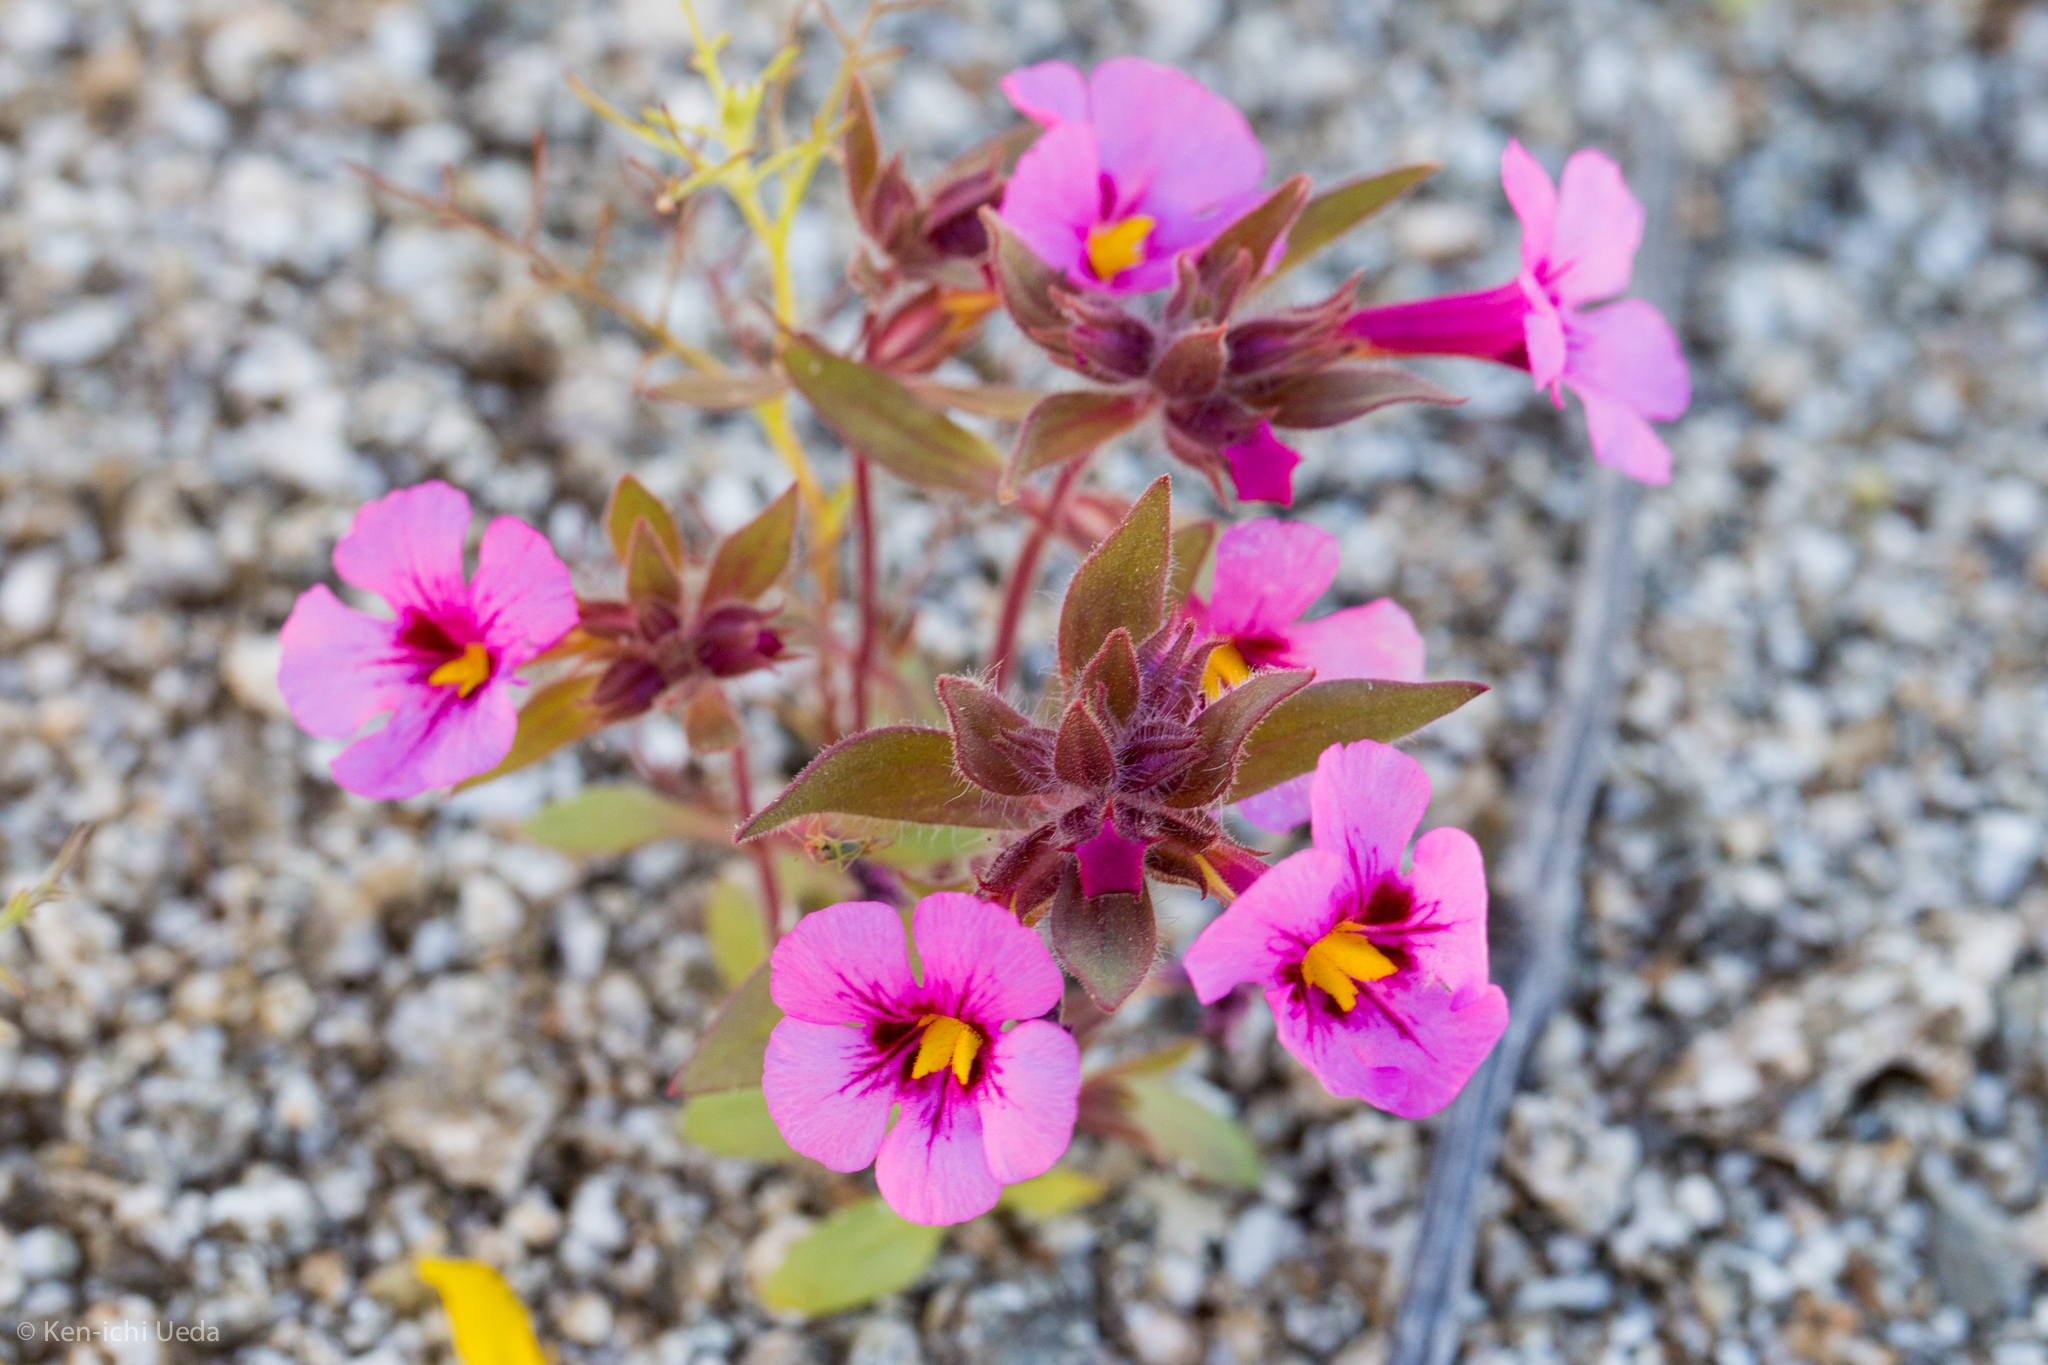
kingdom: Plantae
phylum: Tracheophyta
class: Magnoliopsida
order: Lamiales
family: Phrymaceae
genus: Diplacus
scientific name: Diplacus bigelovii
